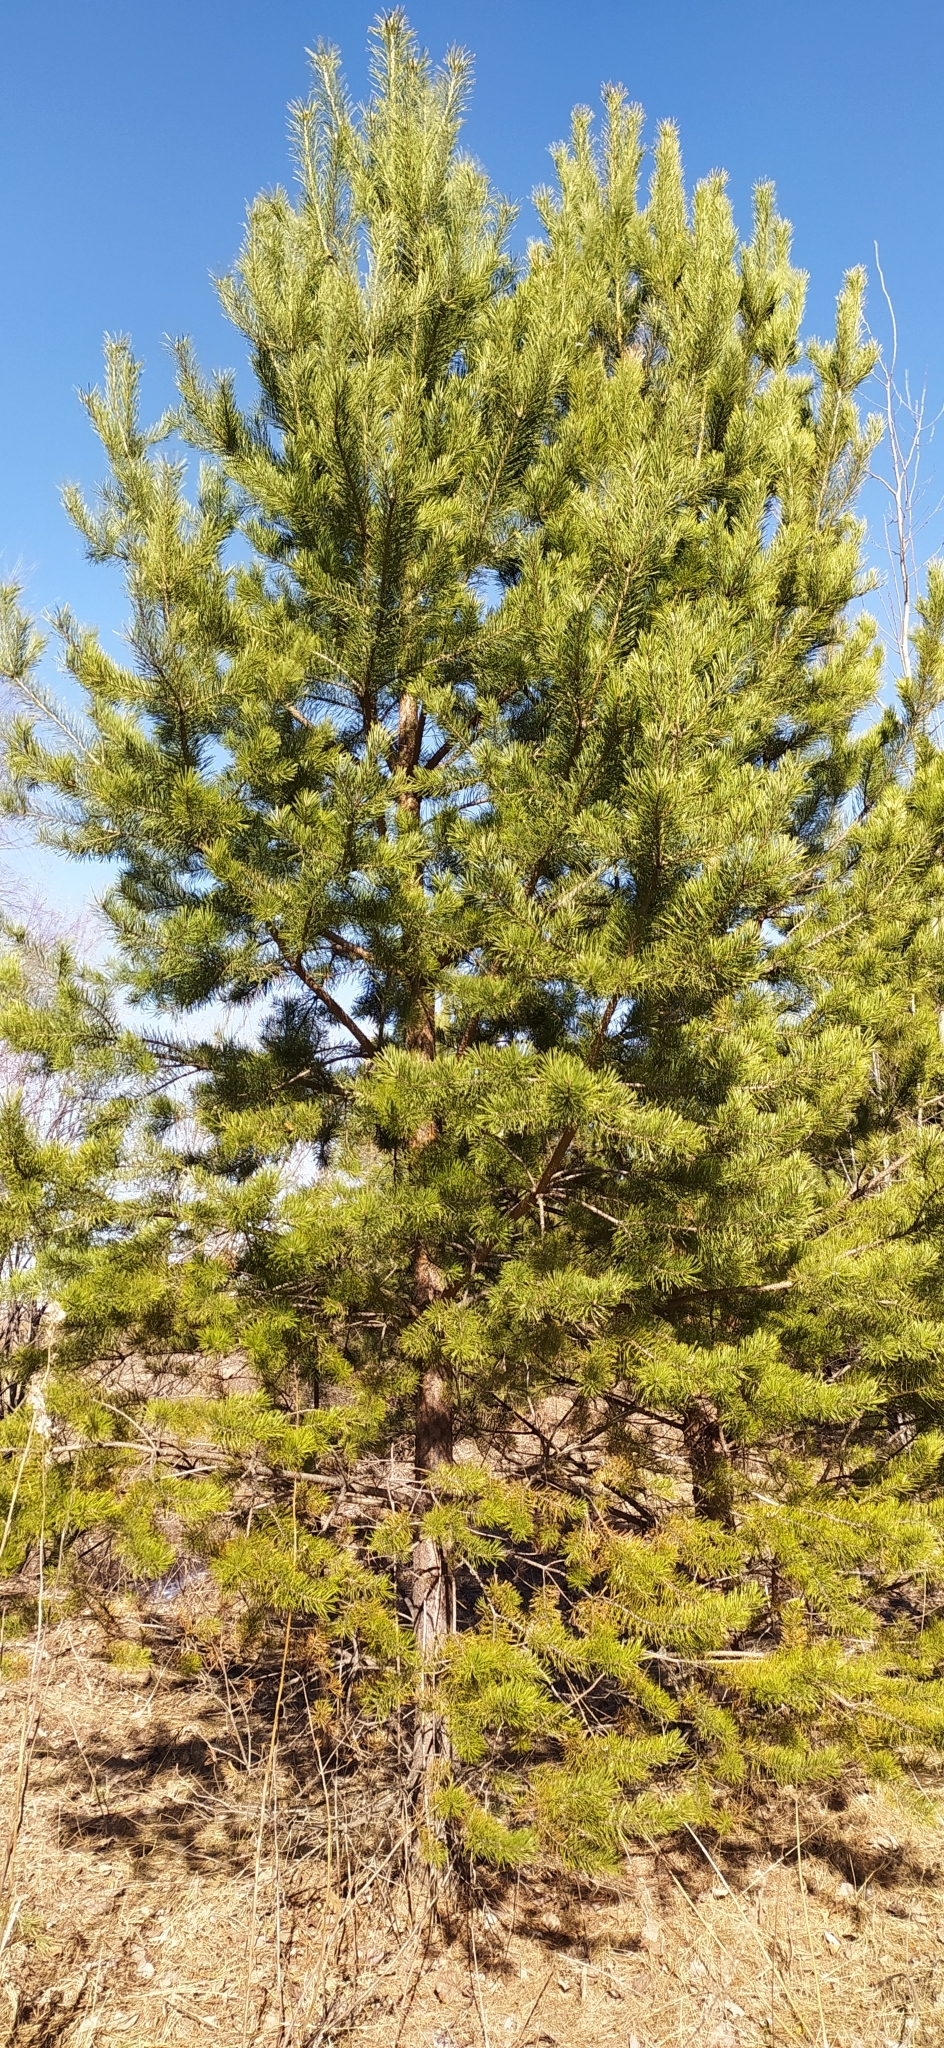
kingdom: Plantae
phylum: Tracheophyta
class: Pinopsida
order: Pinales
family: Pinaceae
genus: Pinus
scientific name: Pinus sylvestris
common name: Scots pine
